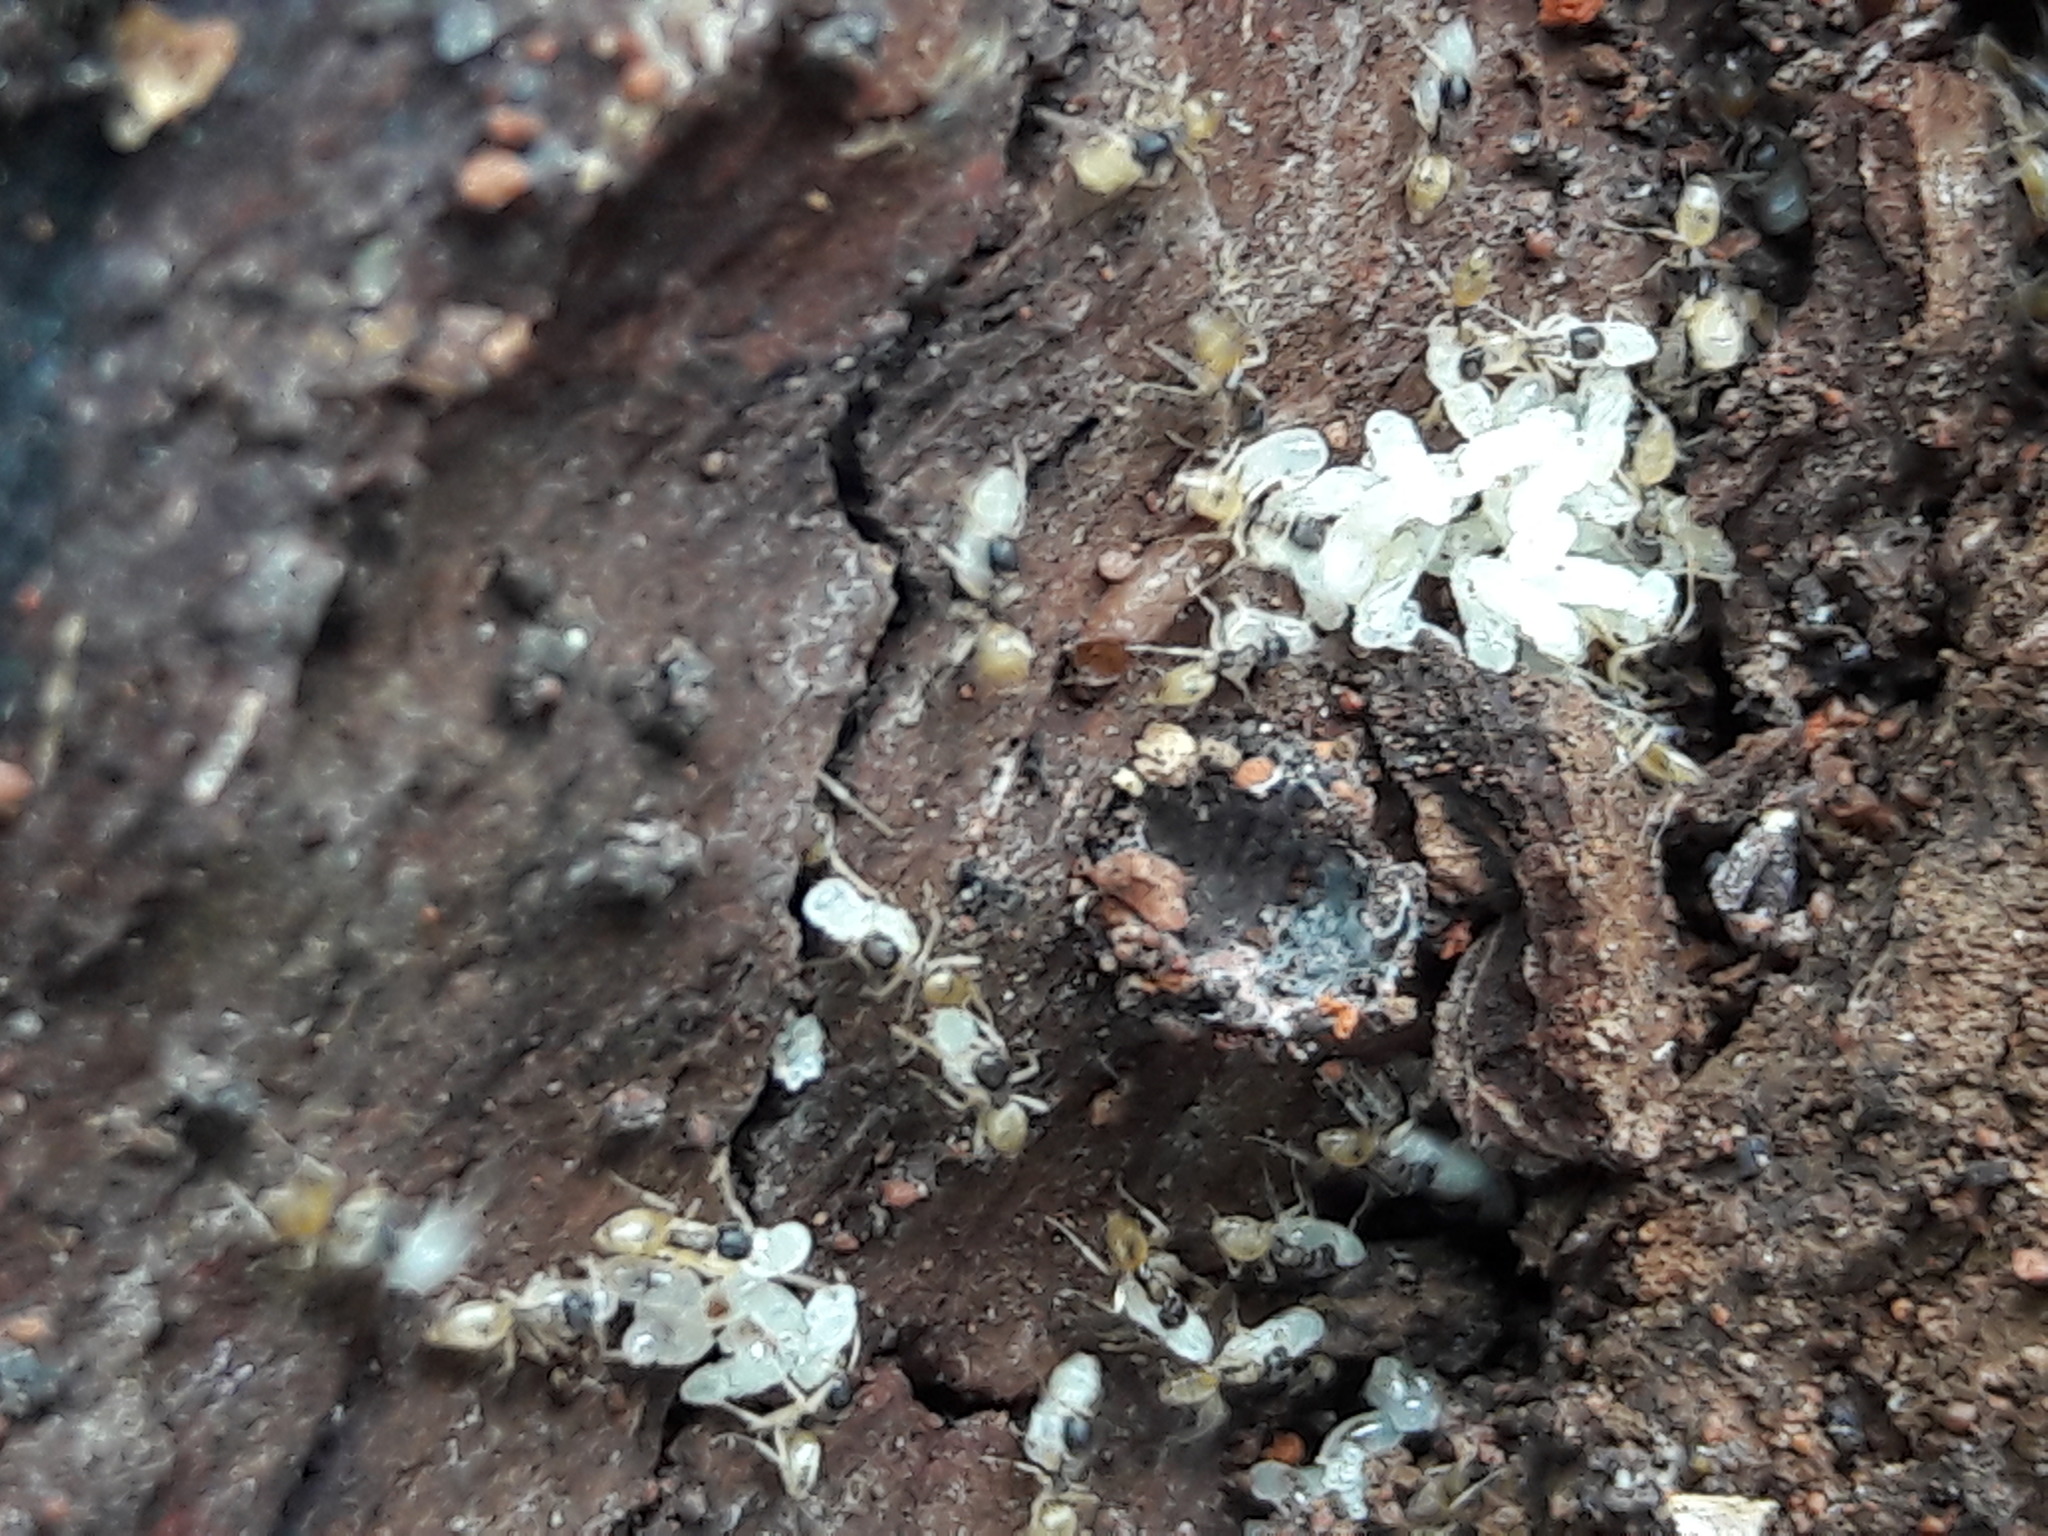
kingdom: Animalia
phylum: Arthropoda
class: Insecta
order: Hymenoptera
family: Formicidae
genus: Tapinoma
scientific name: Tapinoma melanocephalum
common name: Ghost ant
